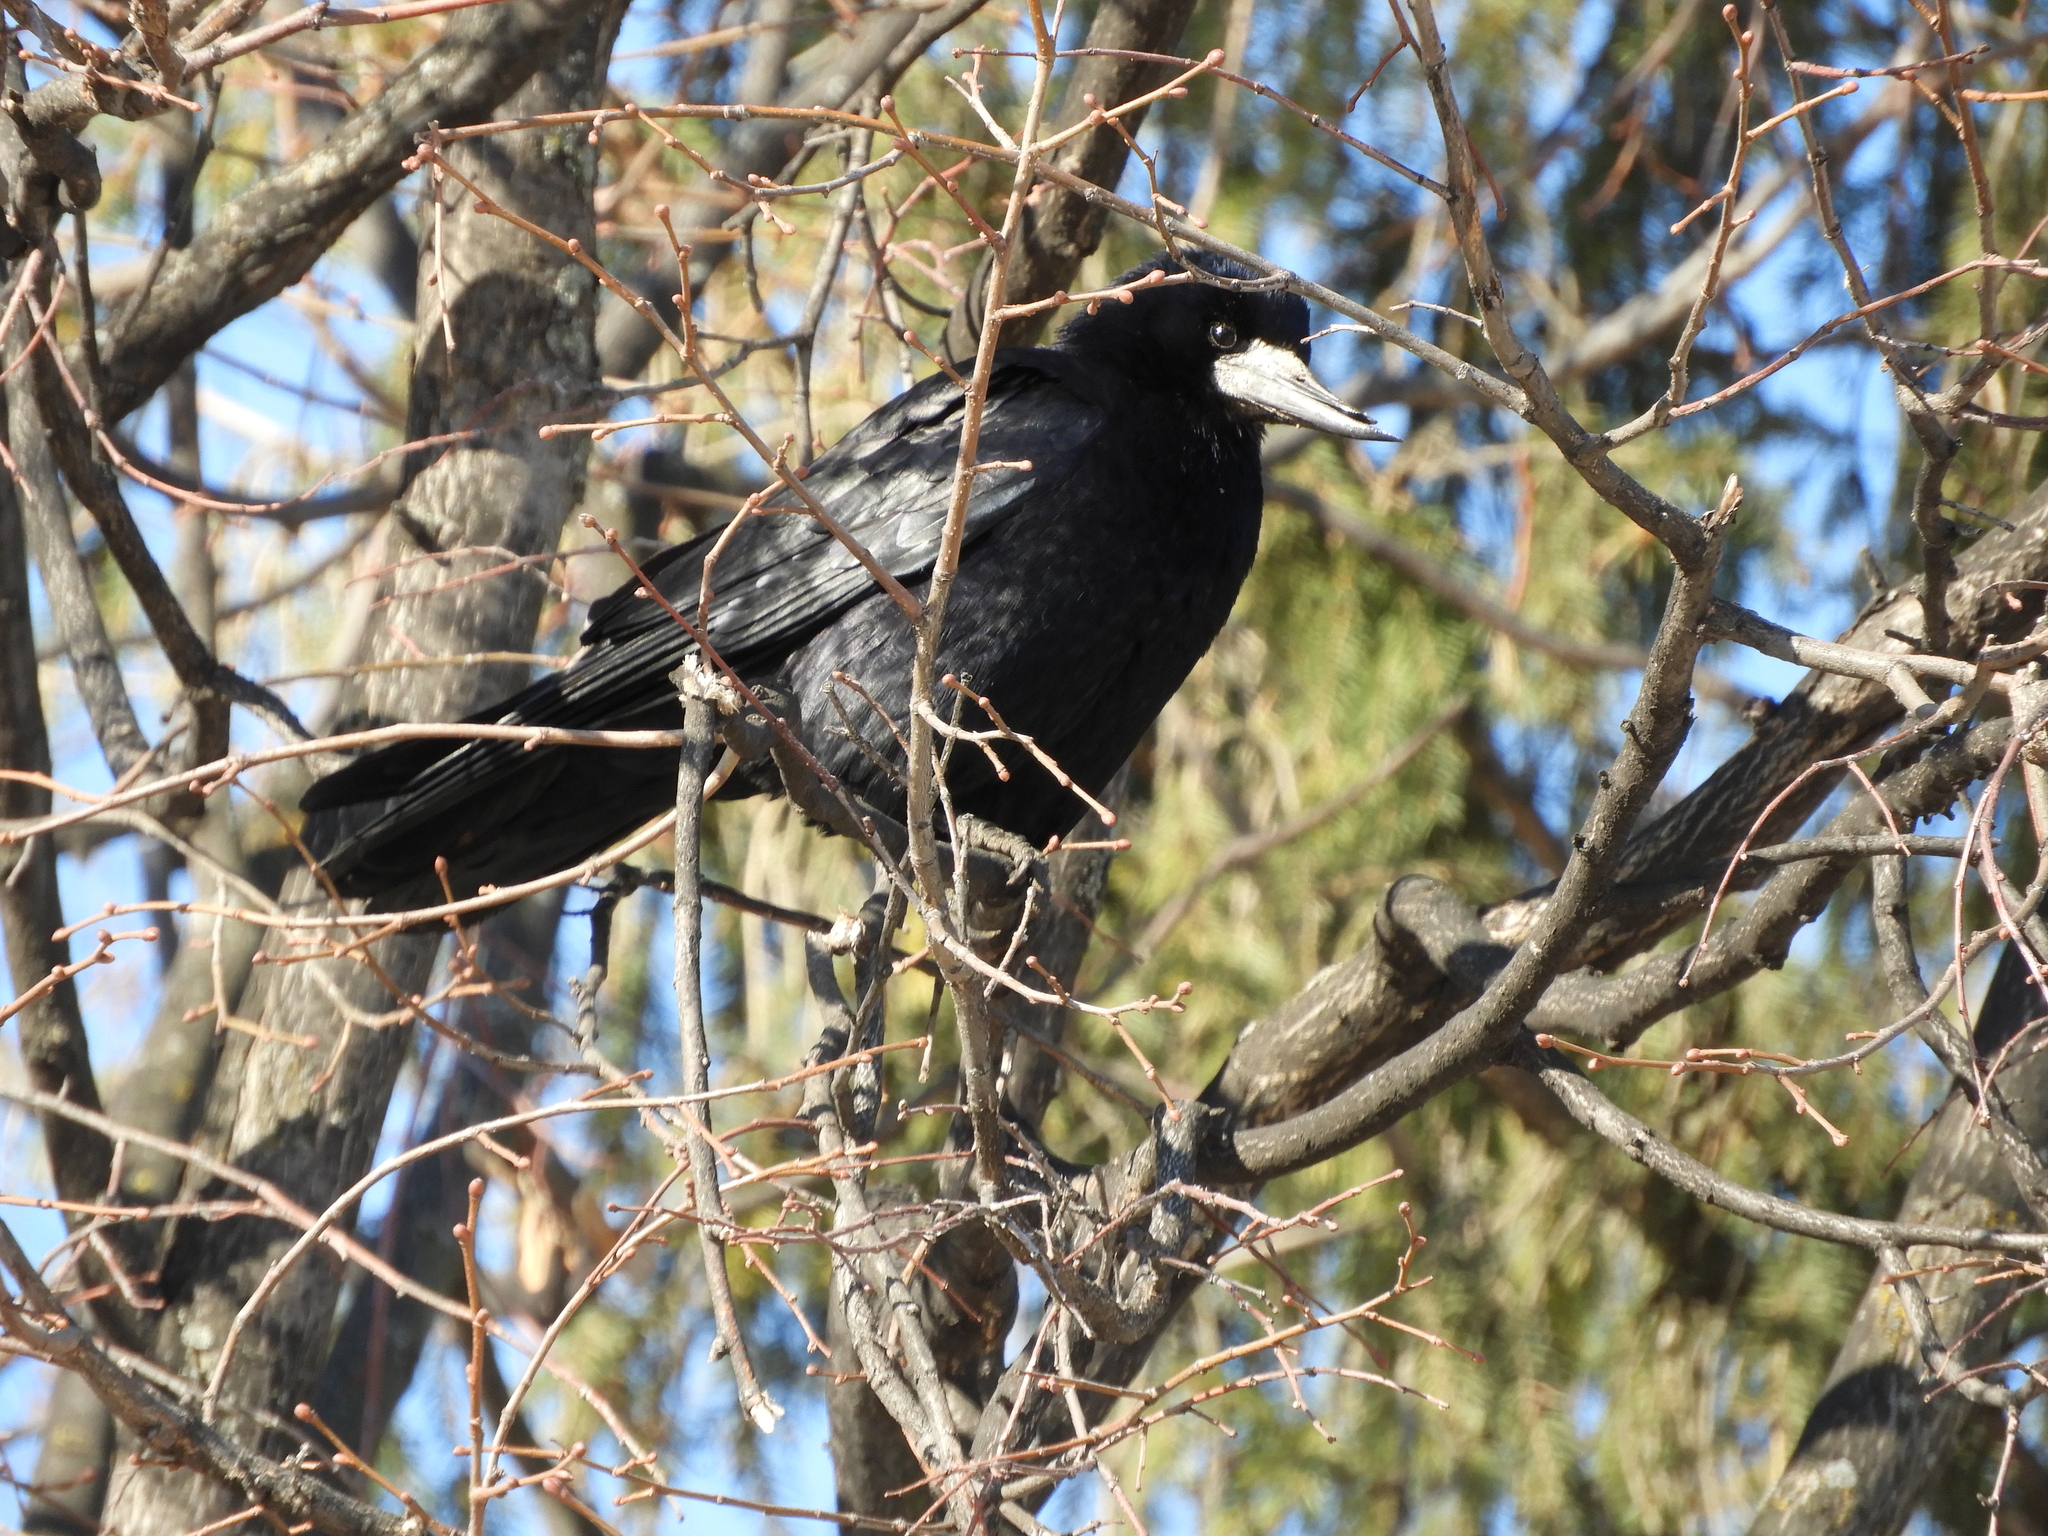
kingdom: Animalia
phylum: Chordata
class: Aves
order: Passeriformes
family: Corvidae
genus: Corvus
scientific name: Corvus frugilegus
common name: Rook
